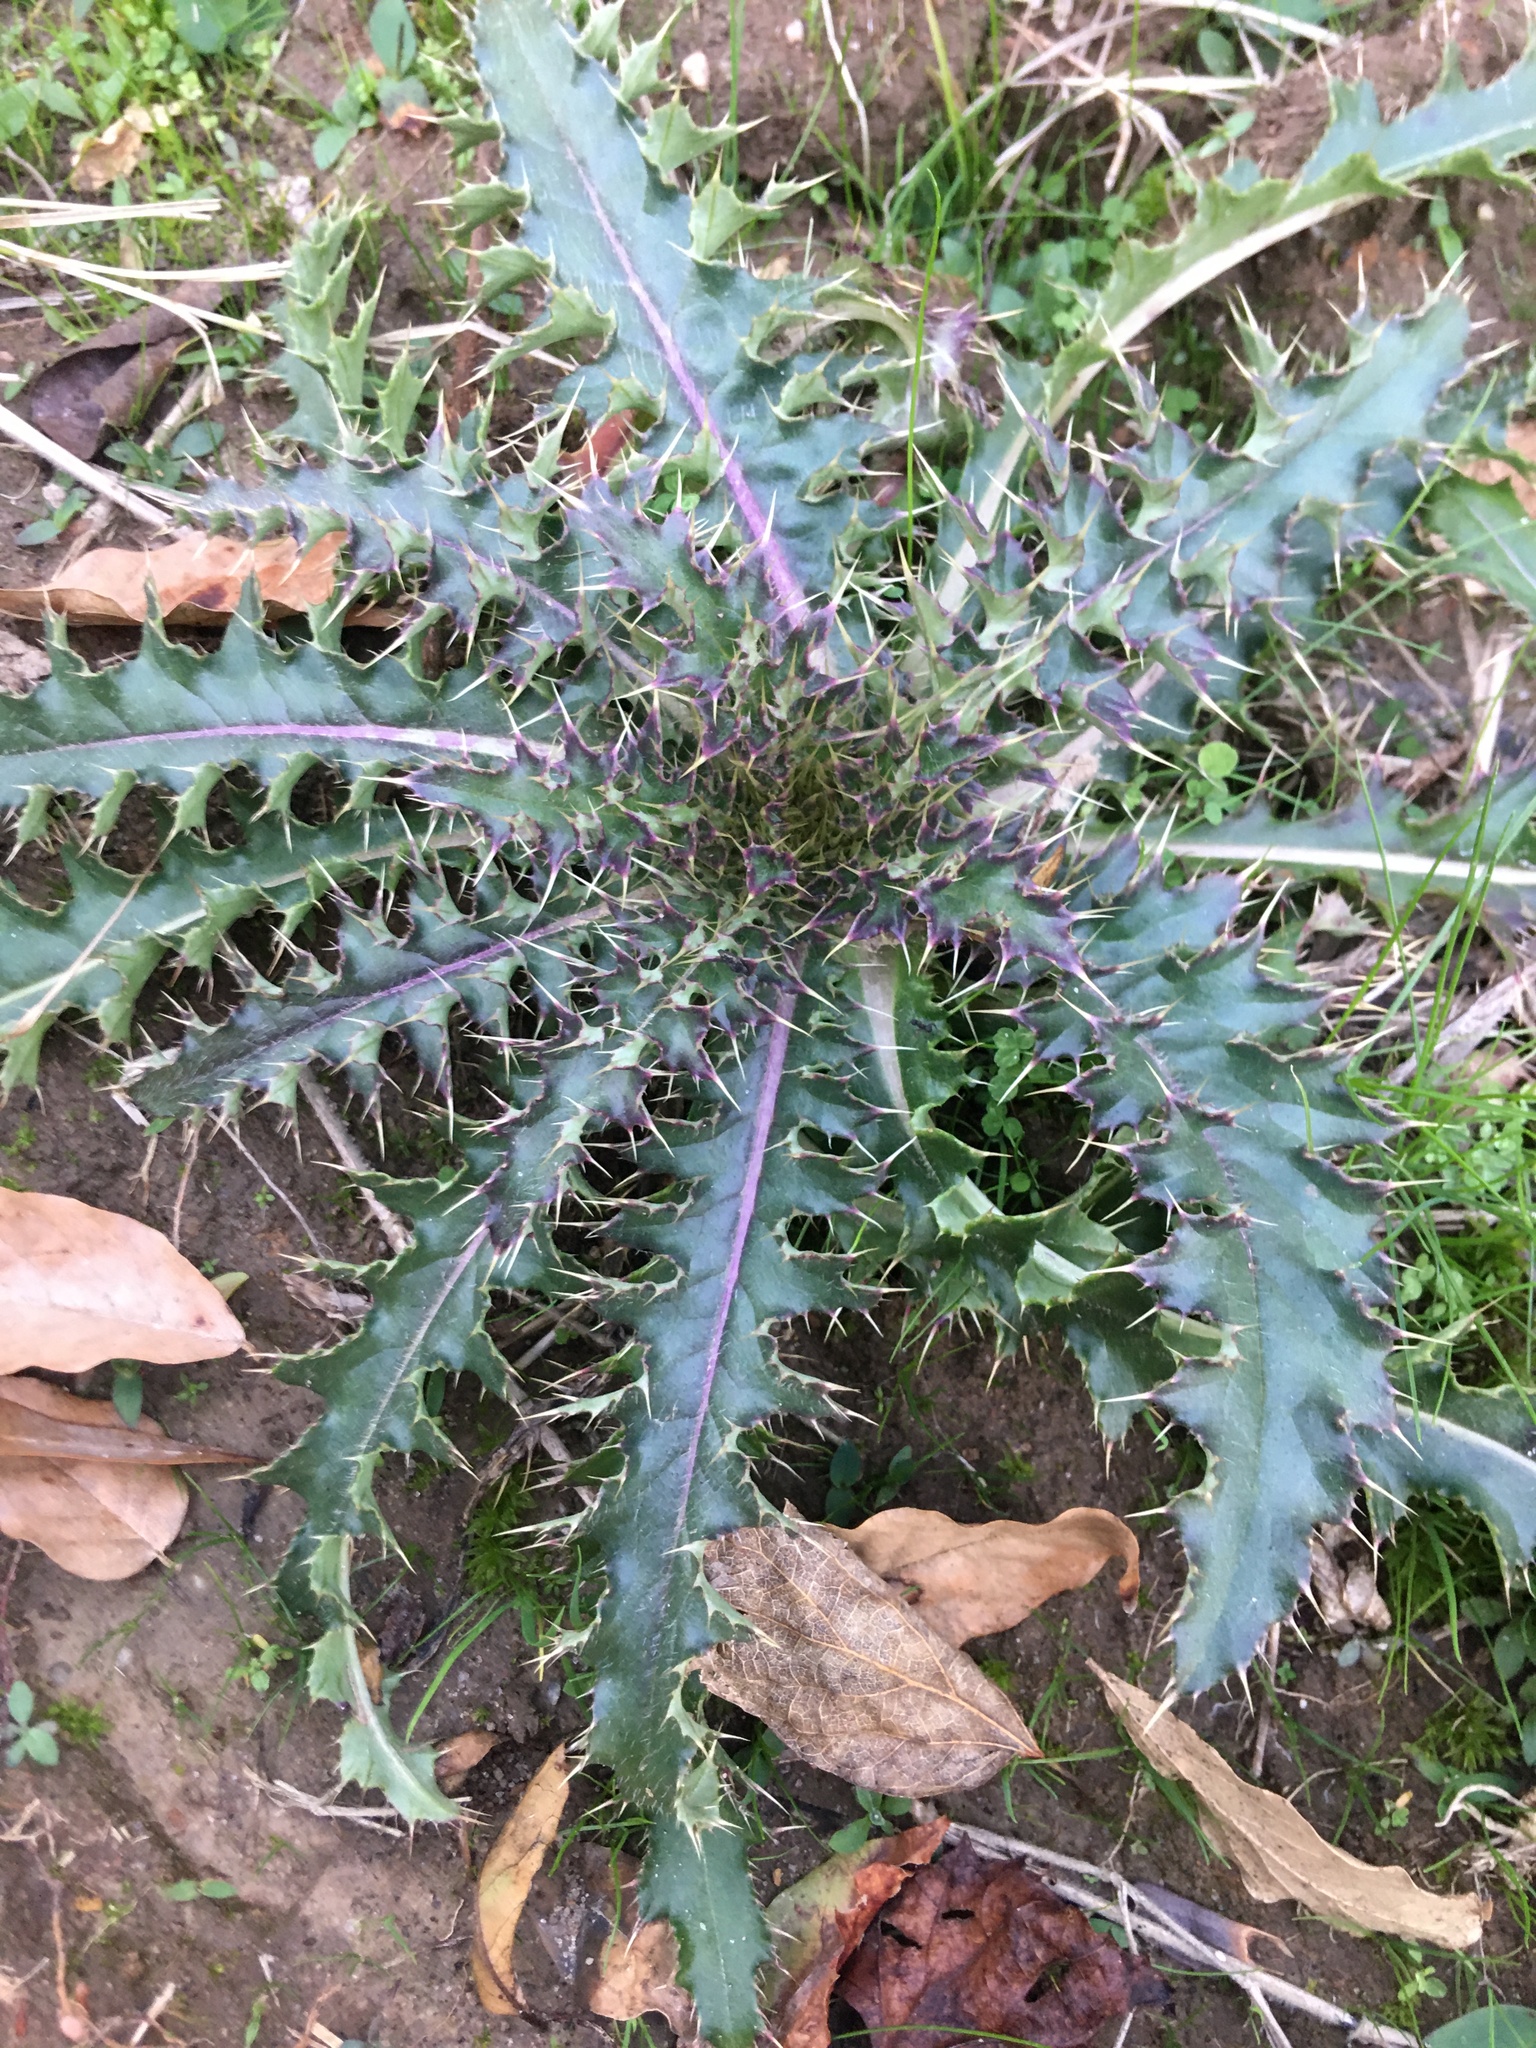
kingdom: Plantae
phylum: Tracheophyta
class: Magnoliopsida
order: Asterales
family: Asteraceae
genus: Cirsium
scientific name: Cirsium horridulum
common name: Bristly thistle
